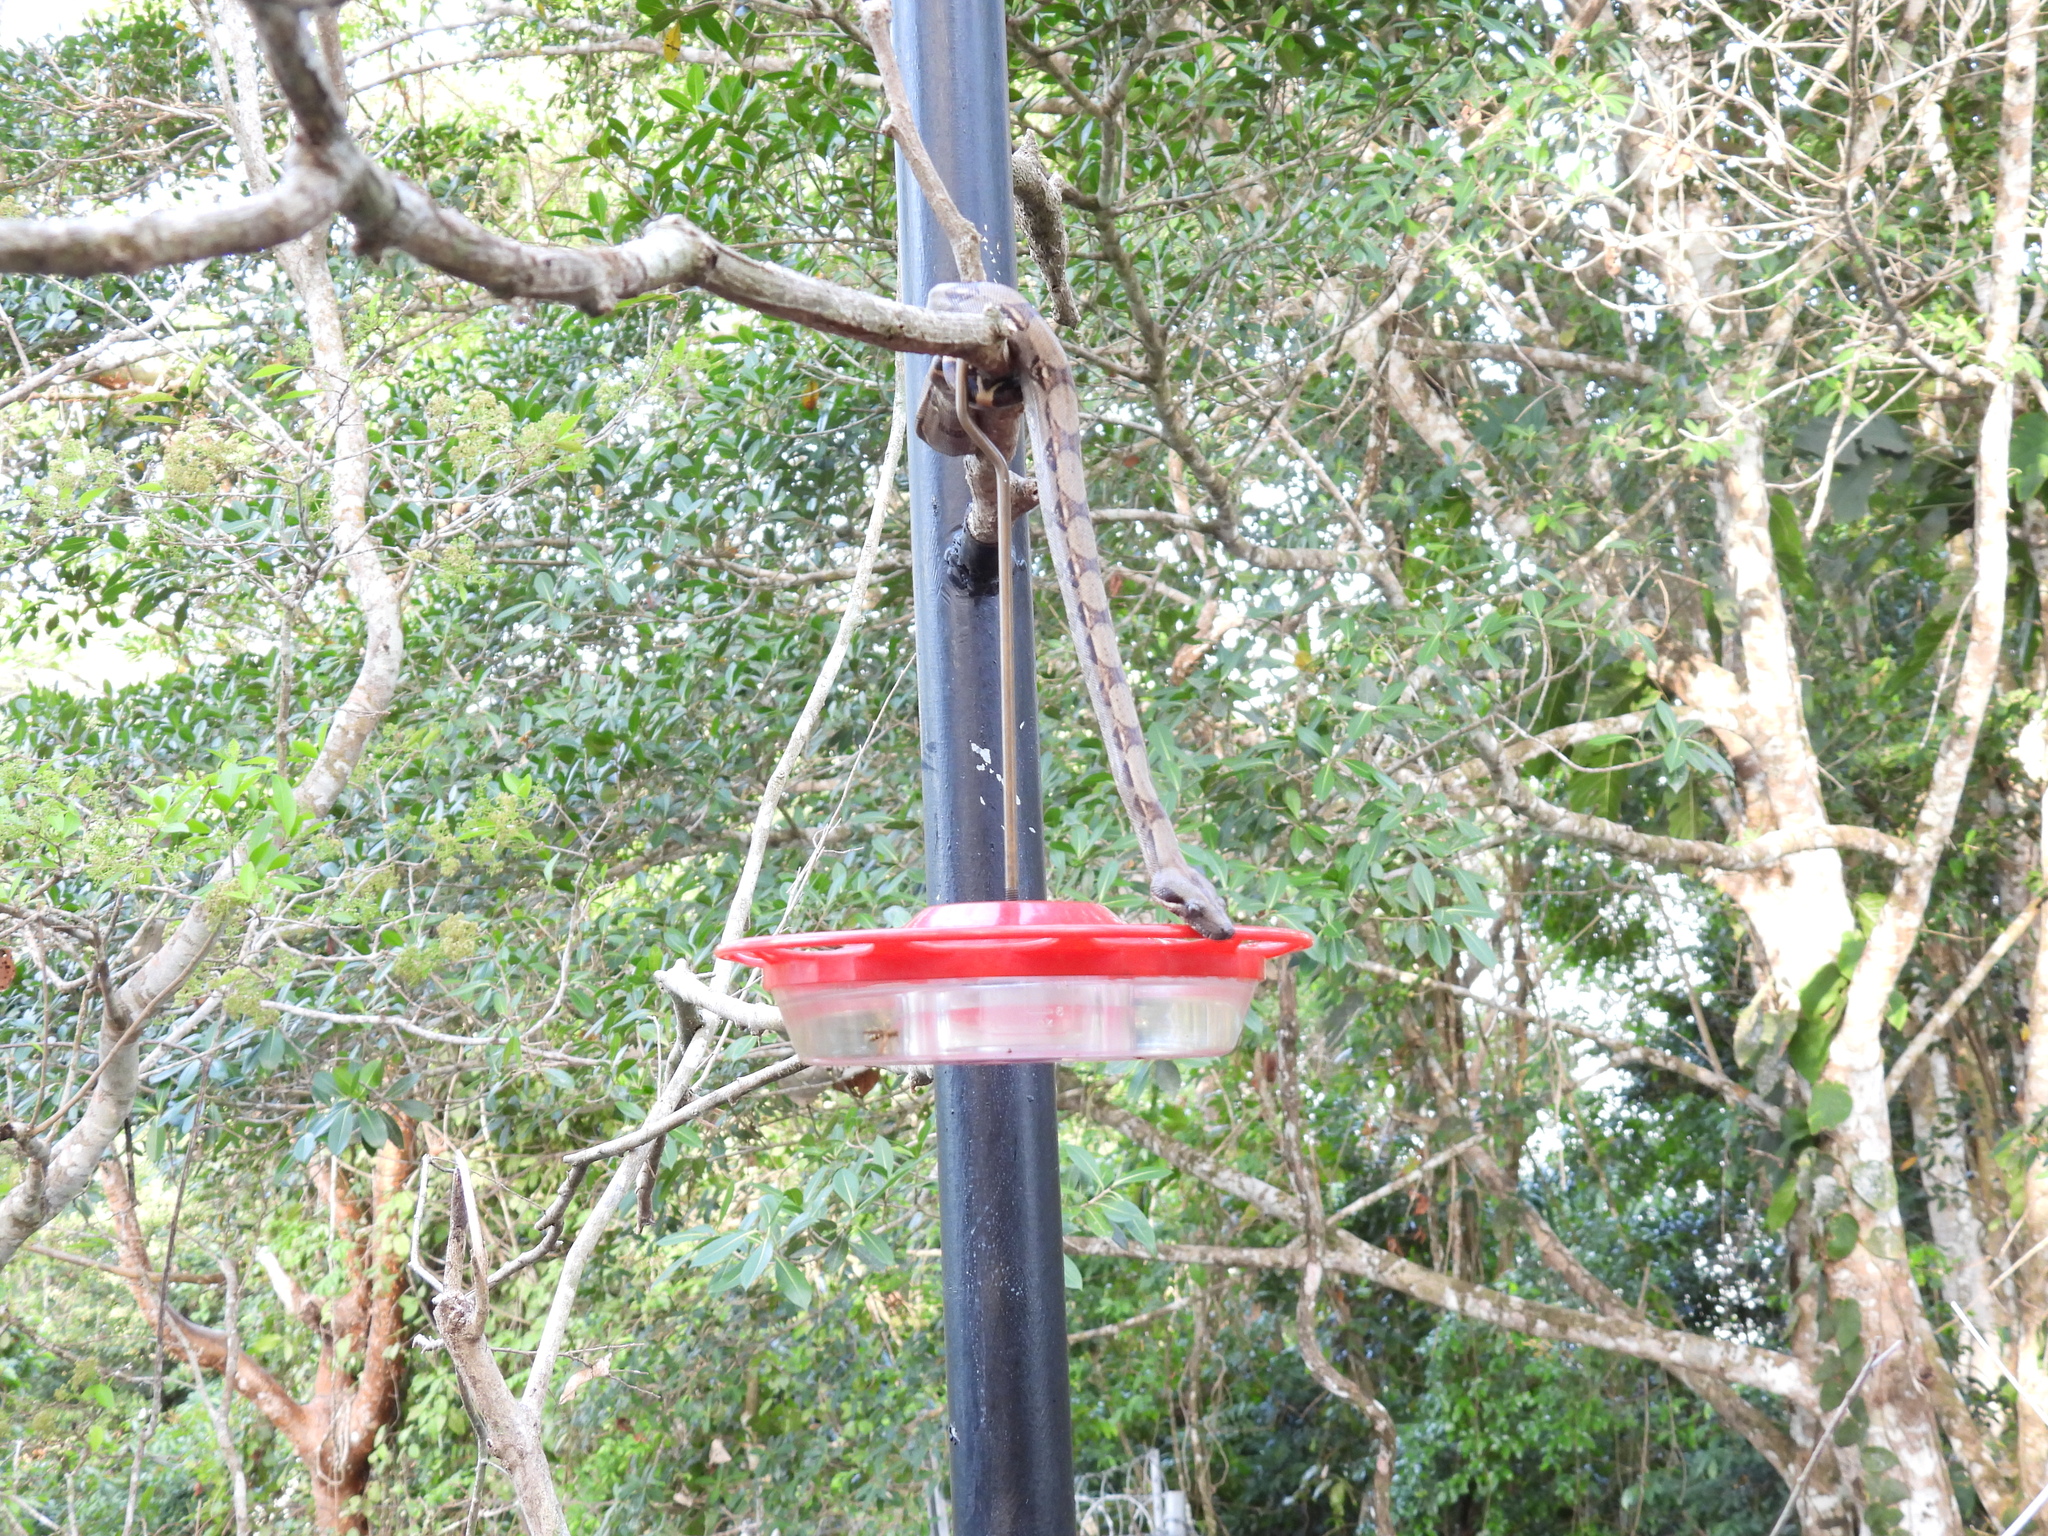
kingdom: Animalia
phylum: Chordata
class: Squamata
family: Boidae
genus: Boa
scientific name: Boa imperator
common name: Central american boa
